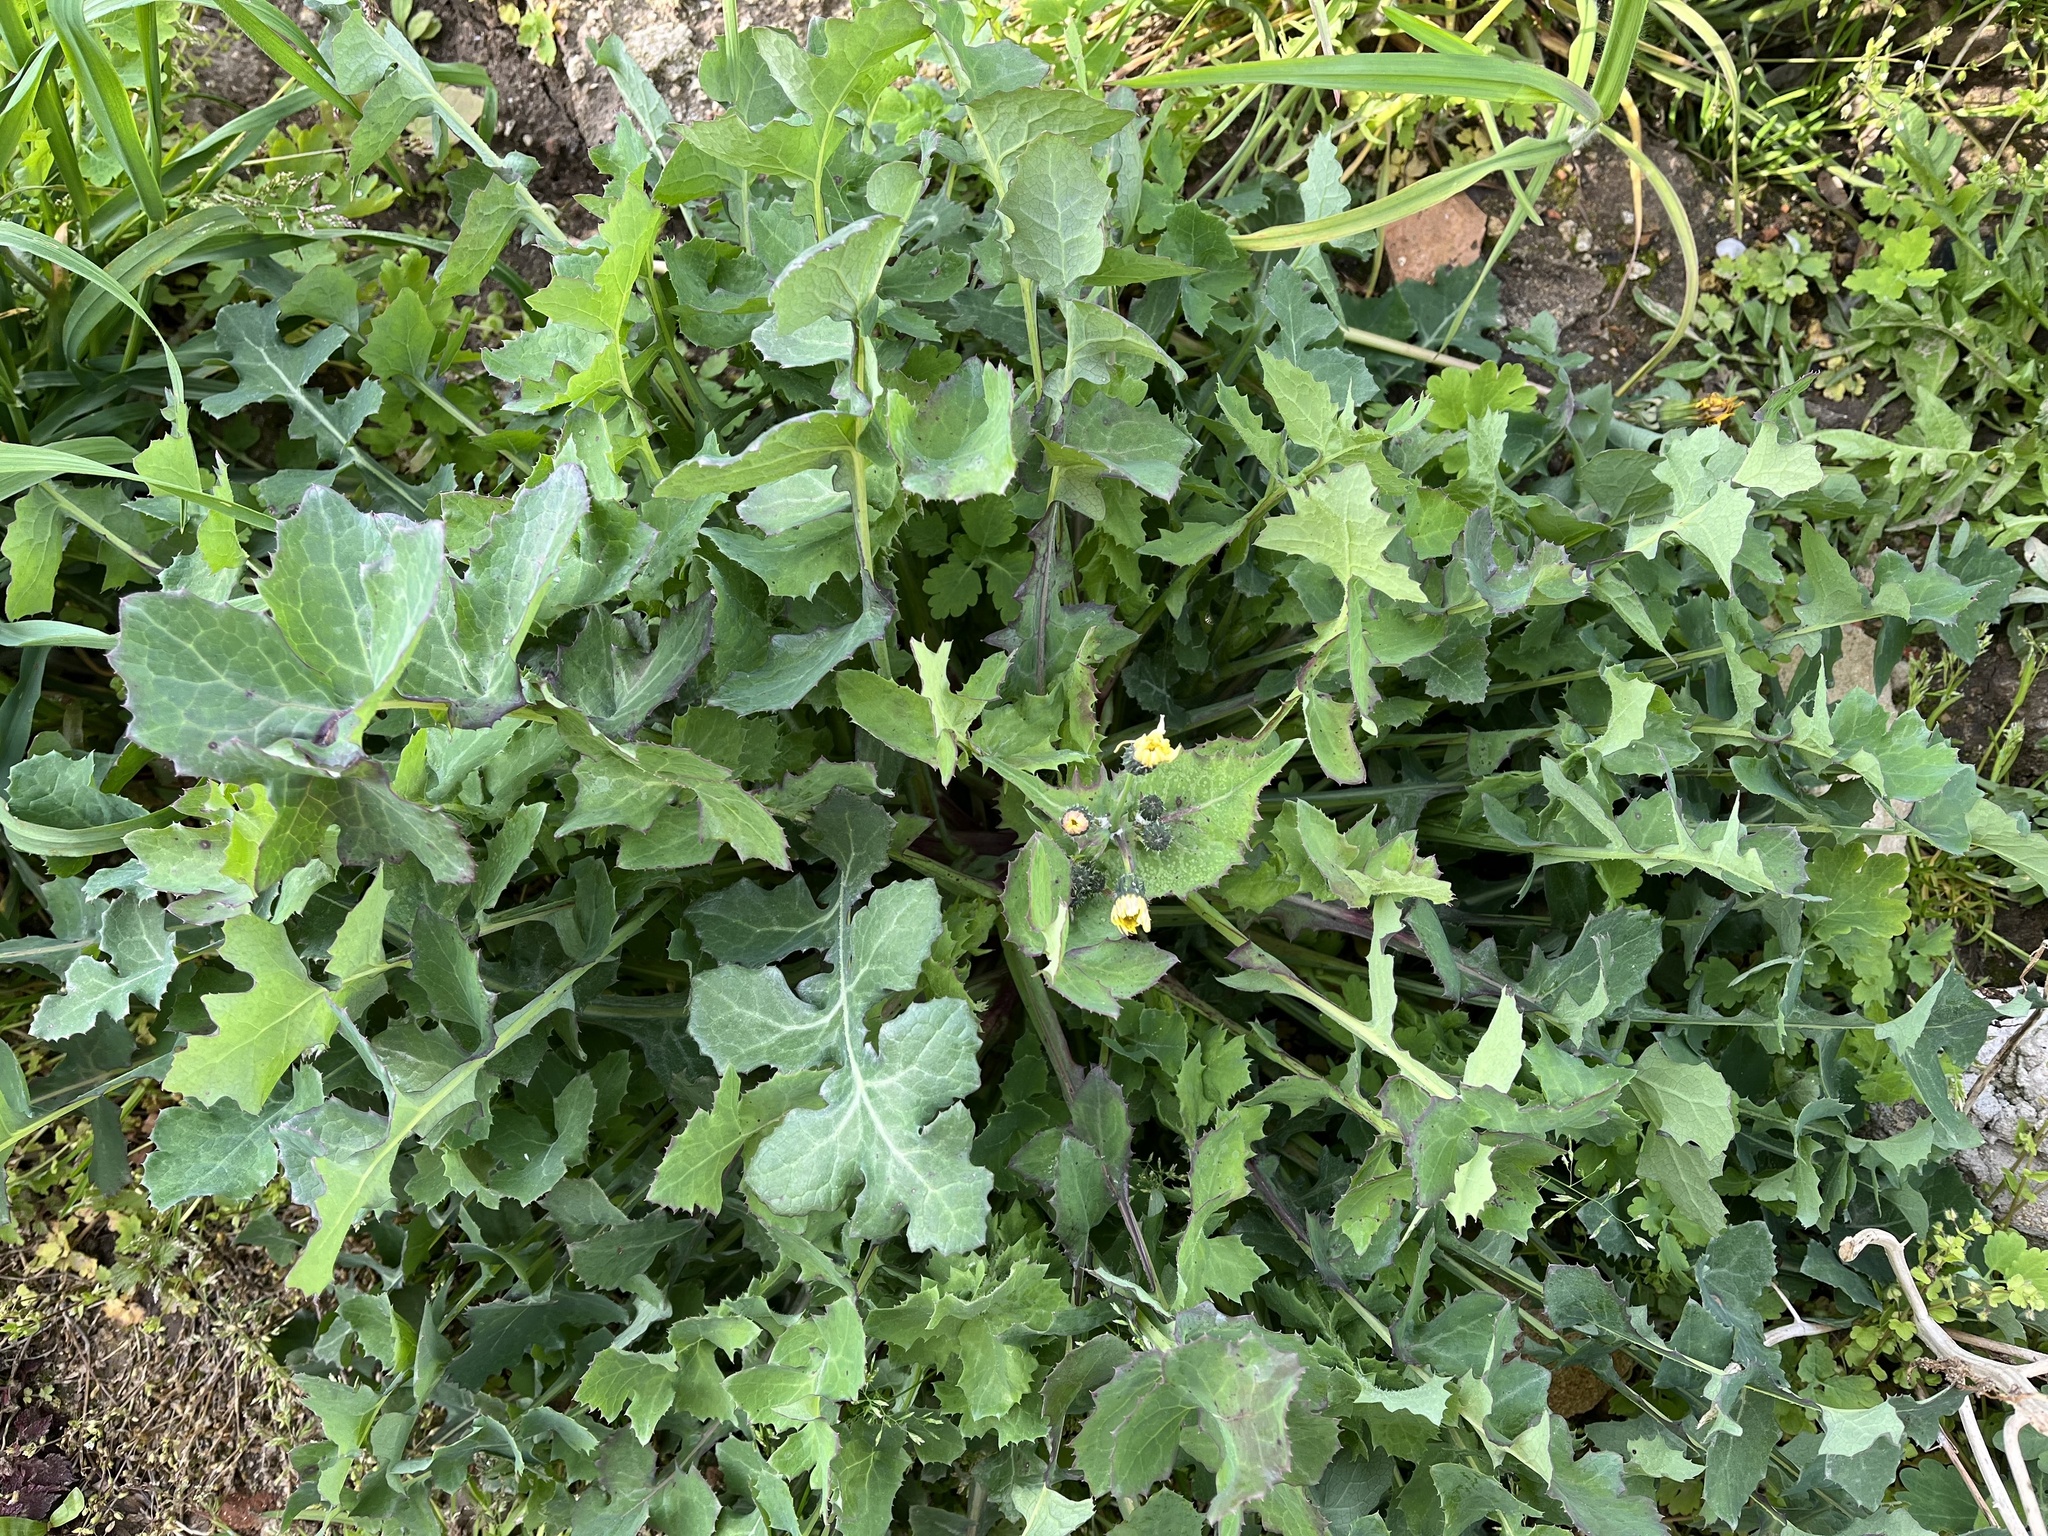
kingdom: Plantae
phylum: Tracheophyta
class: Magnoliopsida
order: Asterales
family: Asteraceae
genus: Sonchus
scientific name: Sonchus oleraceus
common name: Common sowthistle
